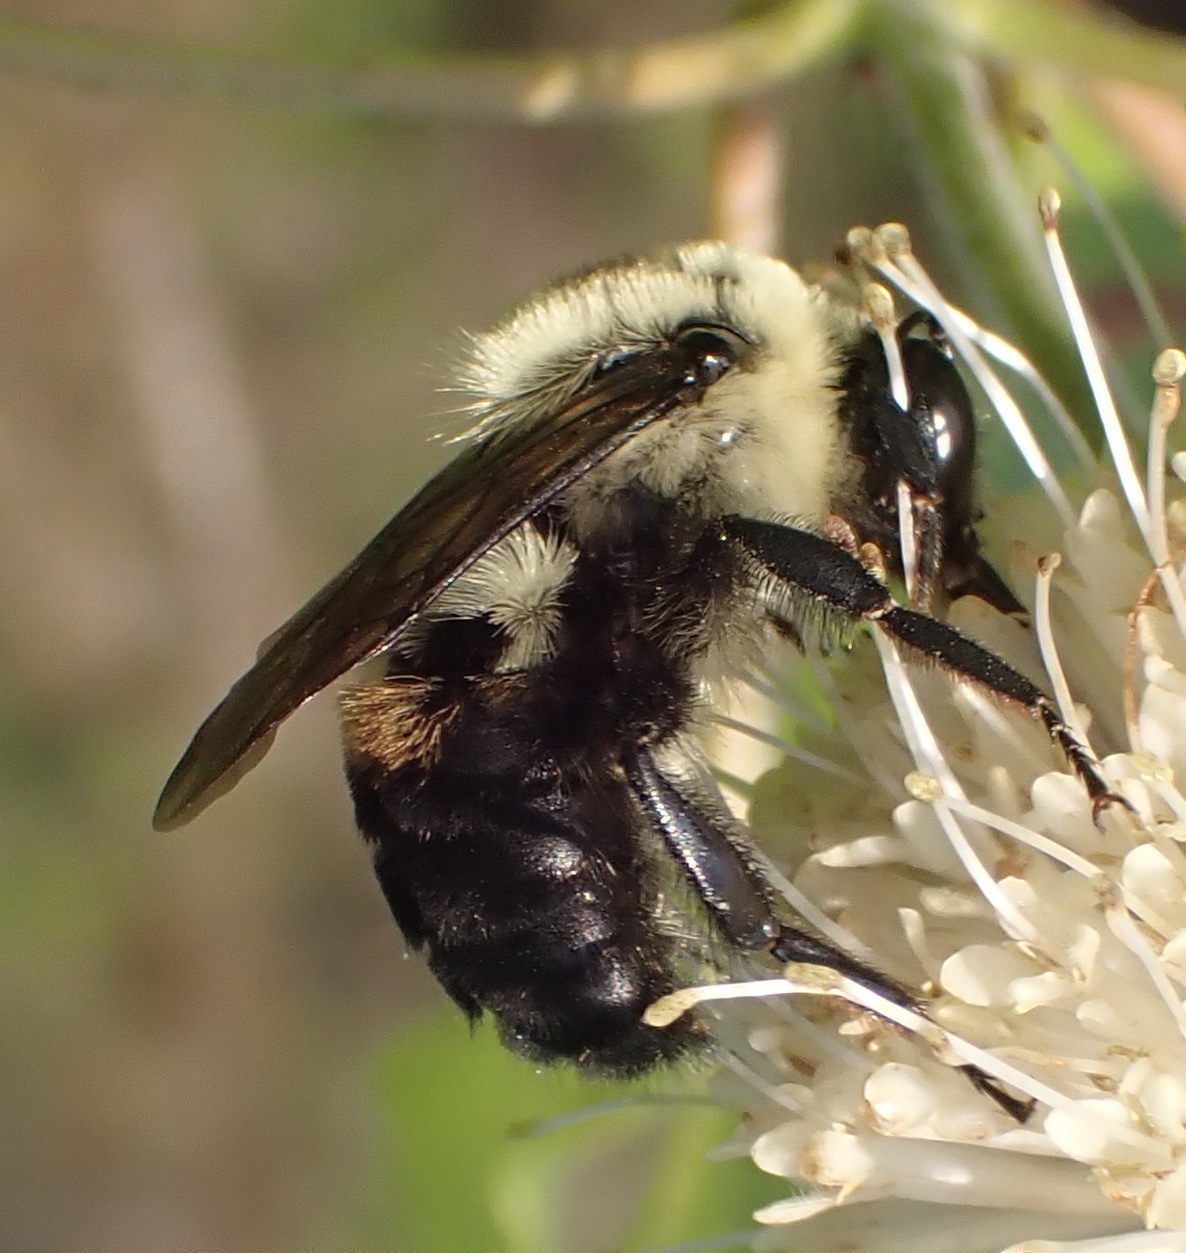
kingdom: Animalia
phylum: Arthropoda
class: Insecta
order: Hymenoptera
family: Apidae
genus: Bombus
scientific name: Bombus griseocollis
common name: Brown-belted bumble bee
